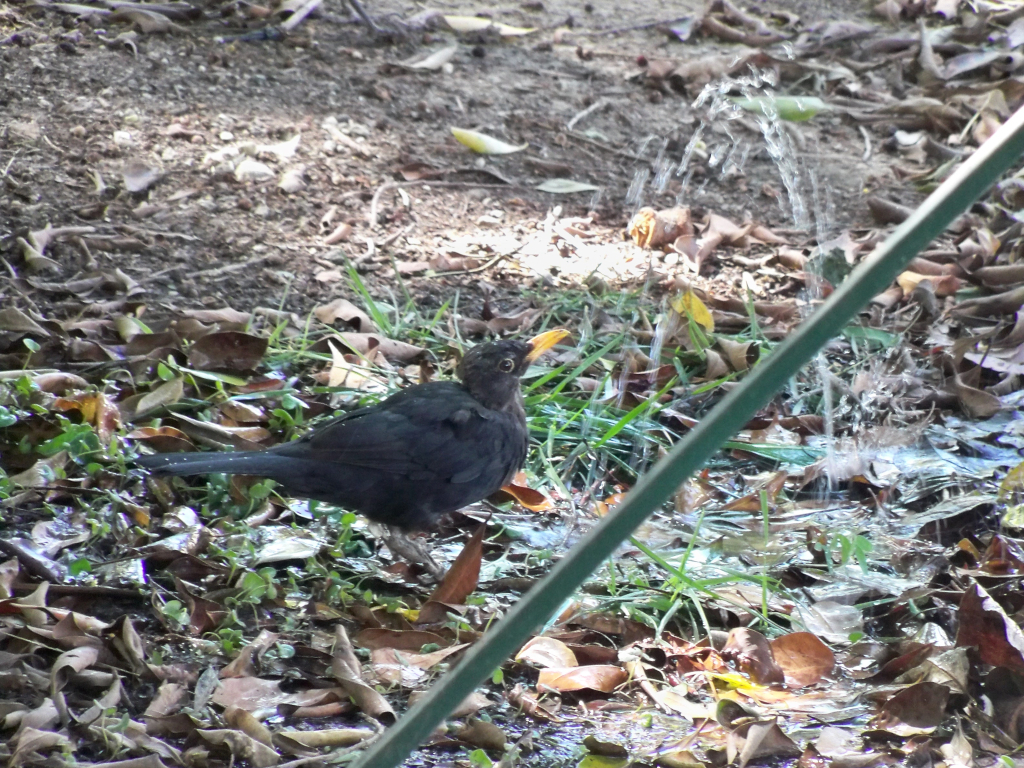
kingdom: Animalia
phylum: Chordata
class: Aves
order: Passeriformes
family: Turdidae
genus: Turdus
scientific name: Turdus merula
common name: Common blackbird
